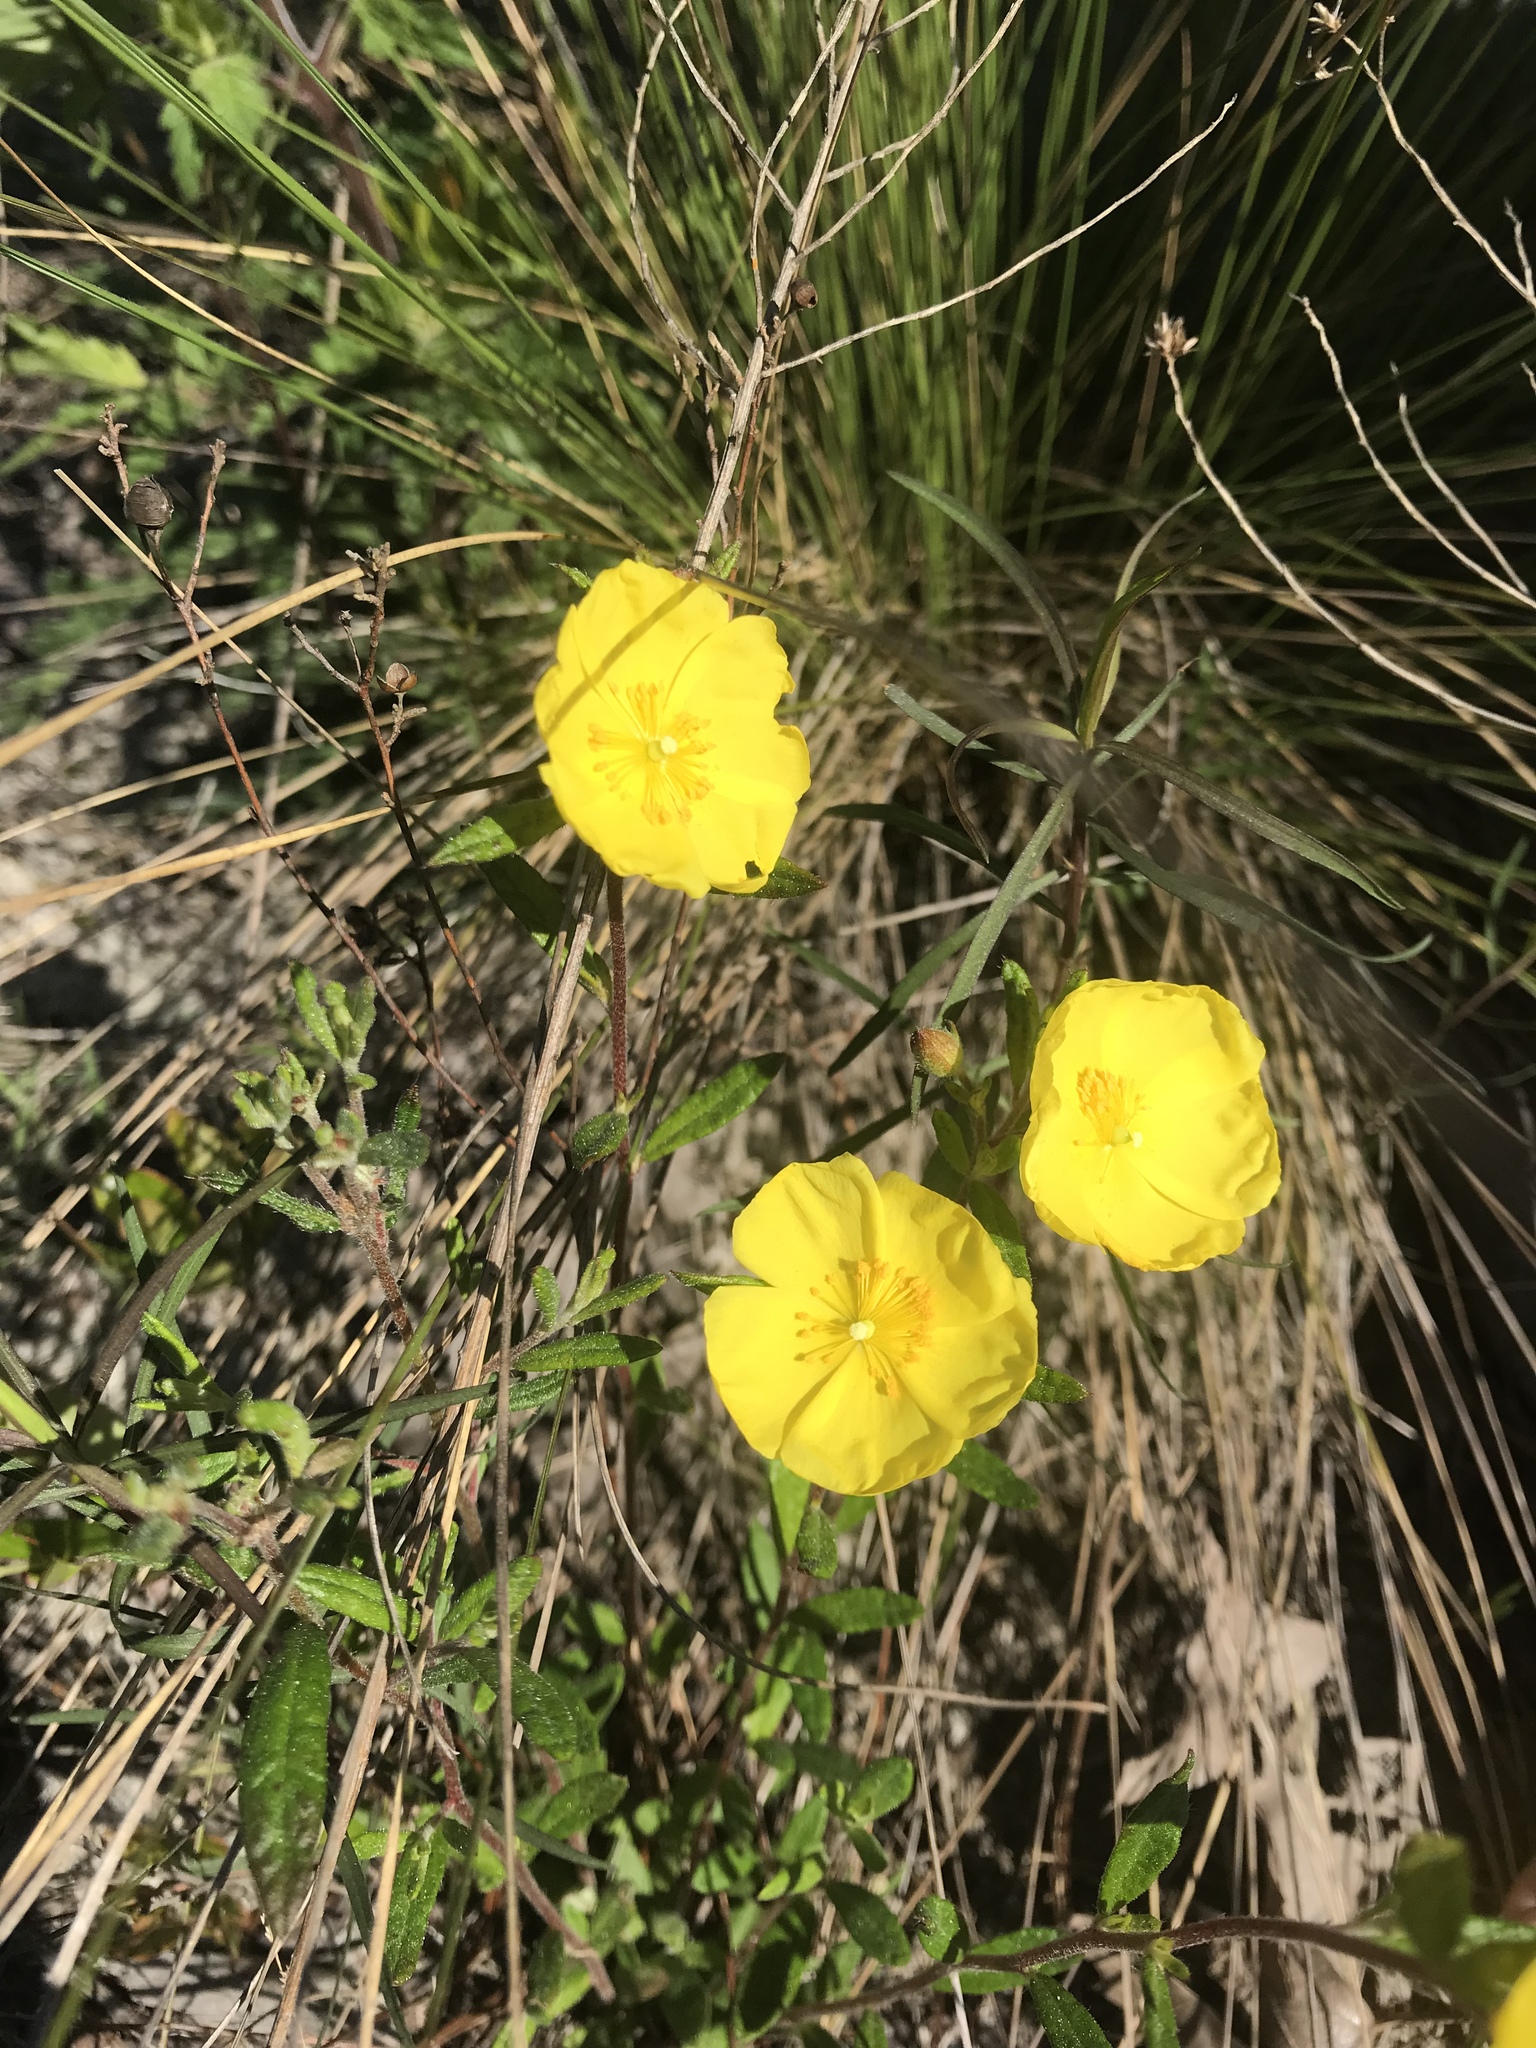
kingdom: Plantae
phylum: Tracheophyta
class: Magnoliopsida
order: Myrtales
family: Onagraceae
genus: Oenothera
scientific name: Oenothera fruticosa
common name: Southern sundrops
